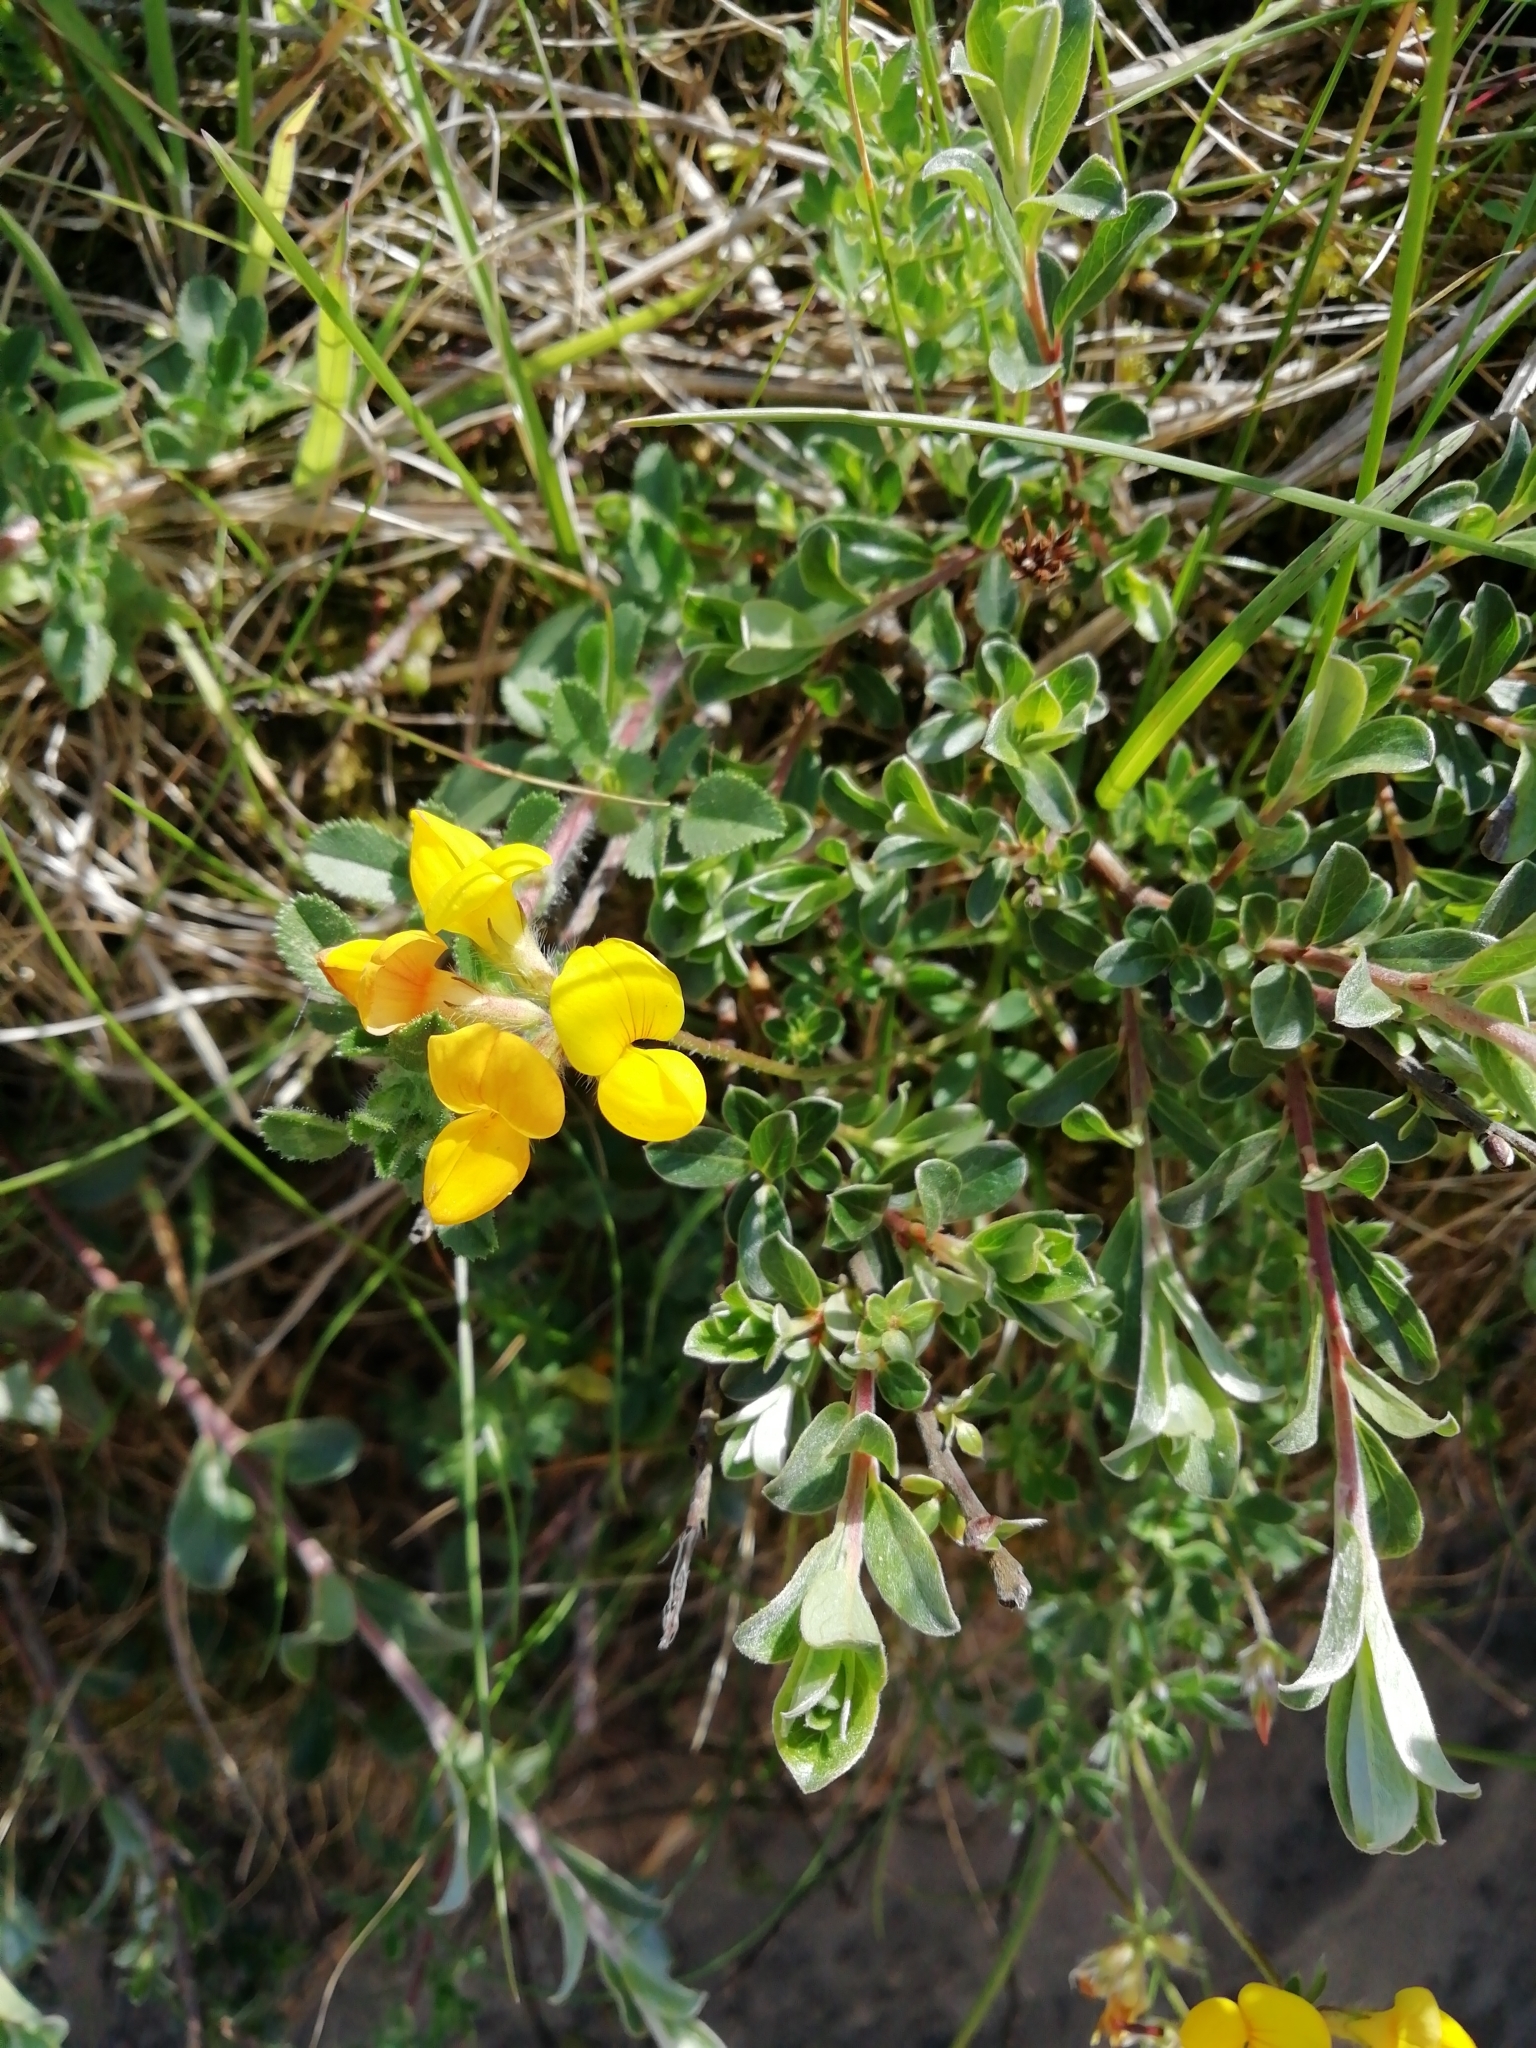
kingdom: Plantae
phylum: Tracheophyta
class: Magnoliopsida
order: Fabales
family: Fabaceae
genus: Lotus
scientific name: Lotus corniculatus
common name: Common bird's-foot-trefoil
